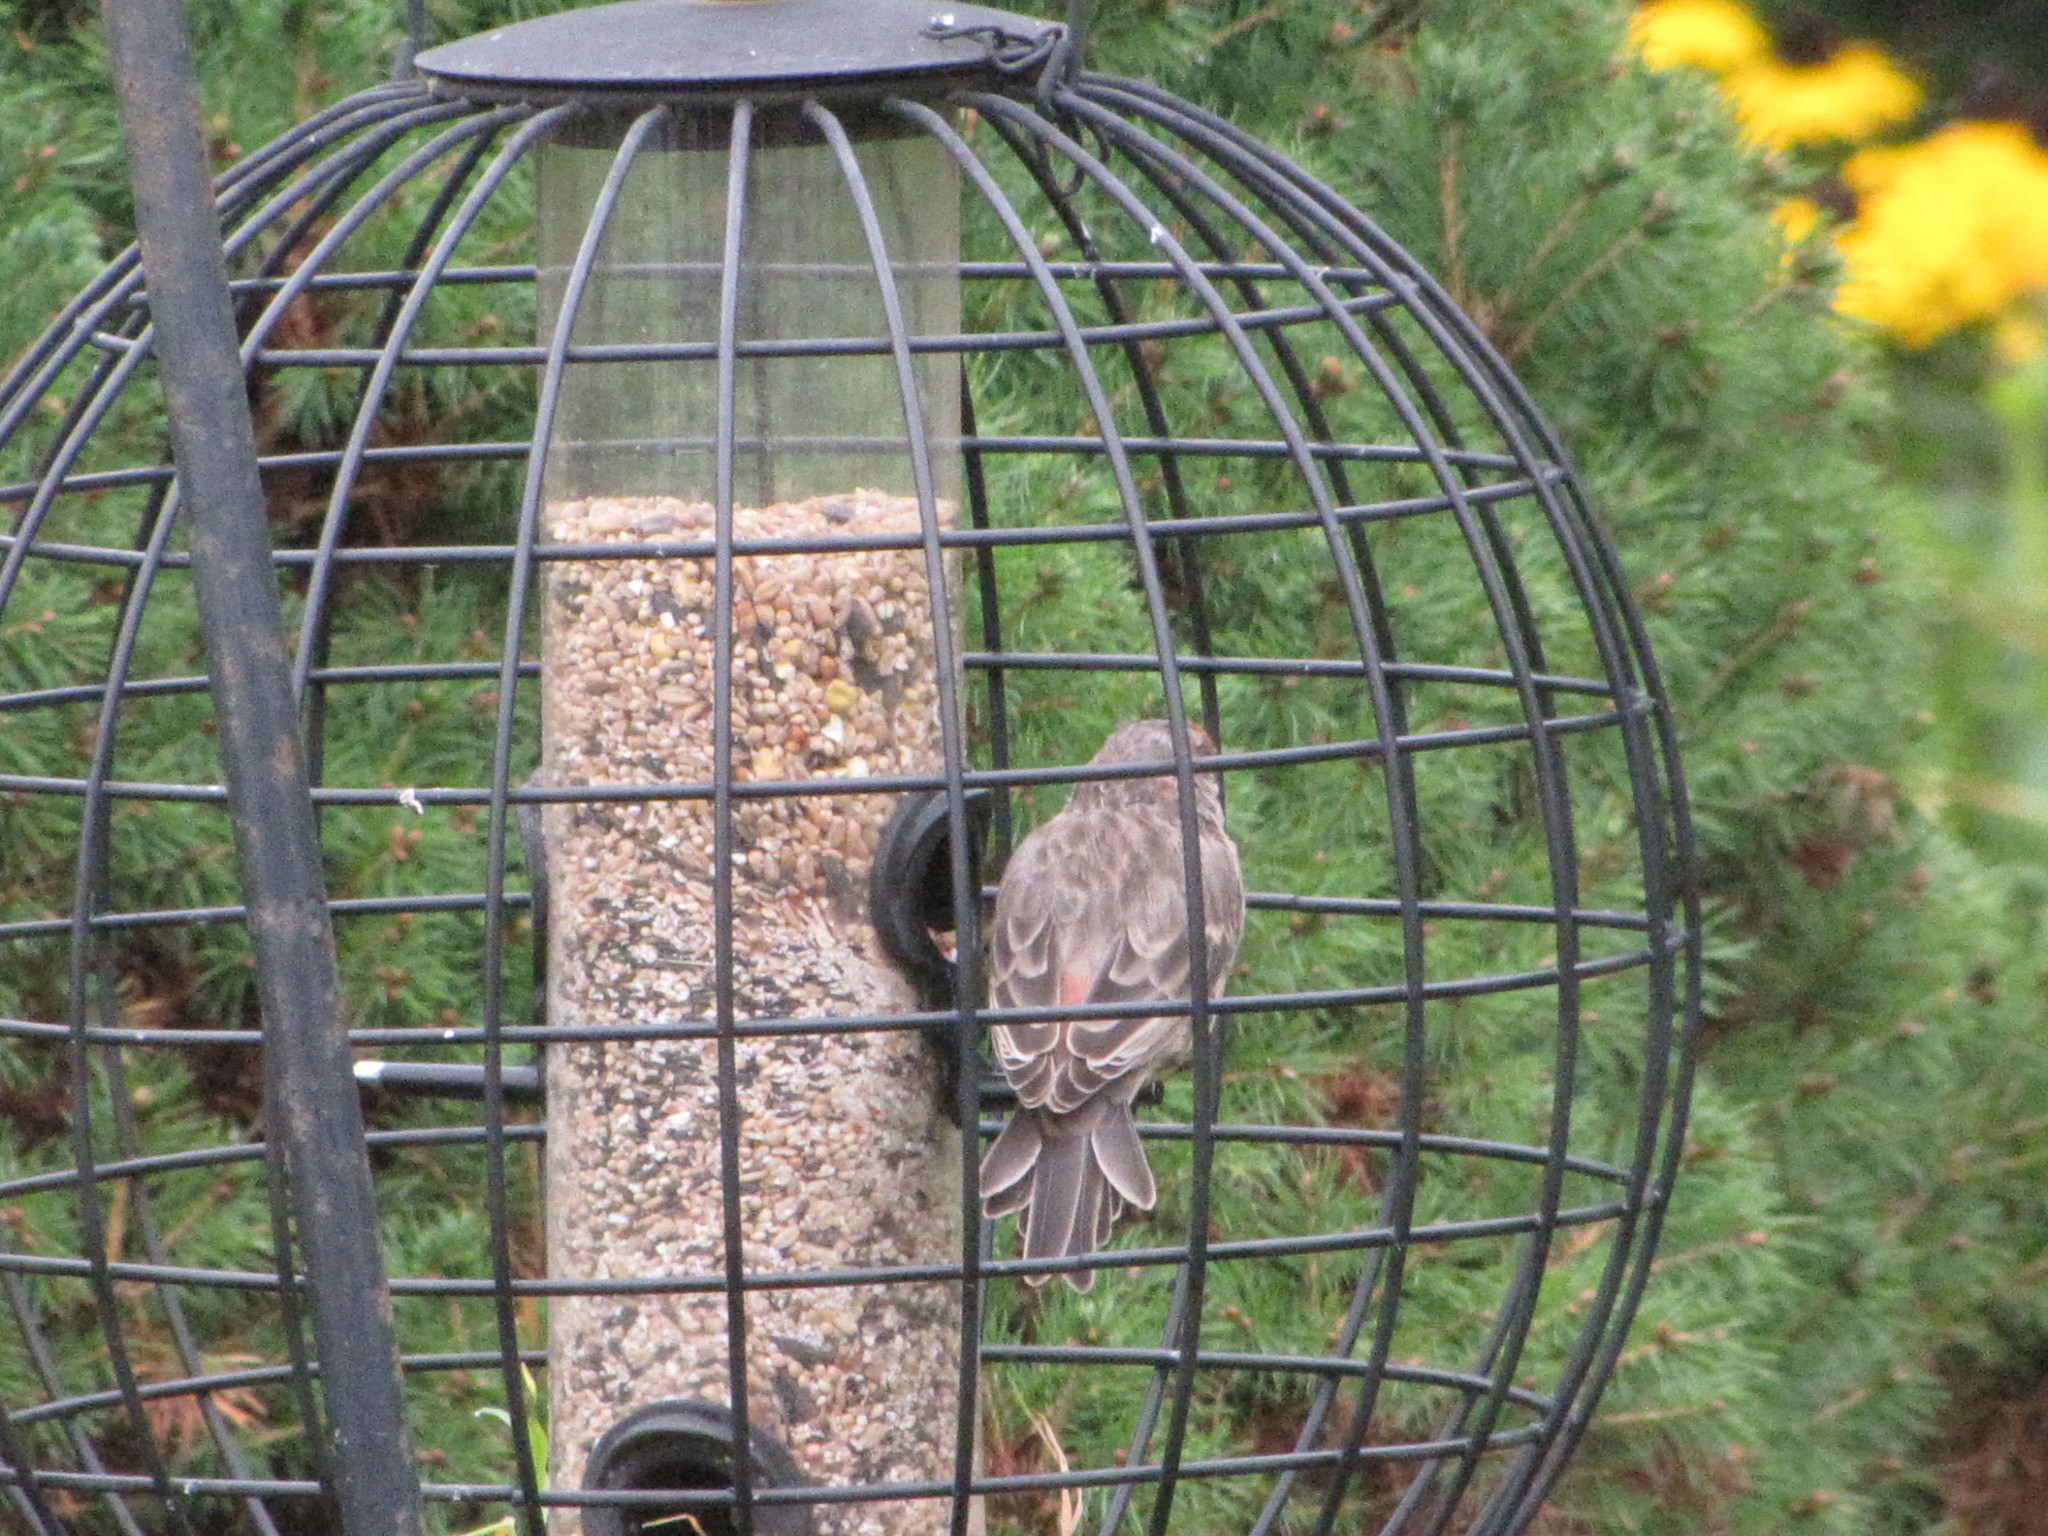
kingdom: Animalia
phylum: Chordata
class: Aves
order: Passeriformes
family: Fringillidae
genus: Haemorhous
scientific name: Haemorhous mexicanus
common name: House finch
